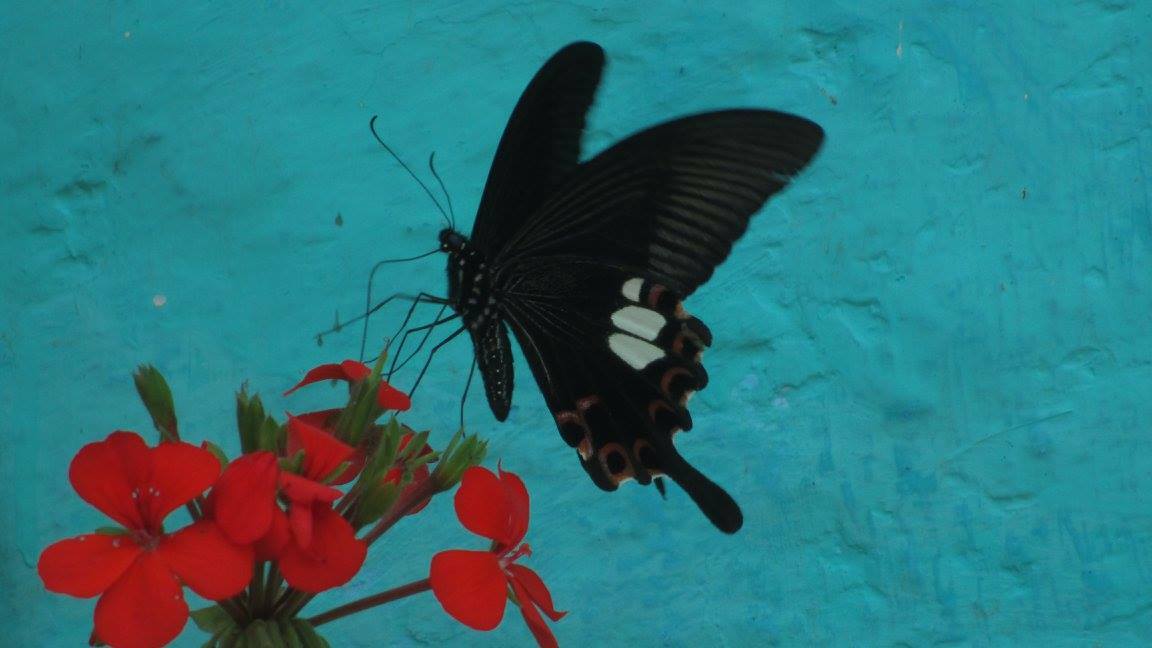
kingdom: Animalia
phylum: Arthropoda
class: Insecta
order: Lepidoptera
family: Papilionidae
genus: Papilio
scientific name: Papilio helenus
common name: Red helen
